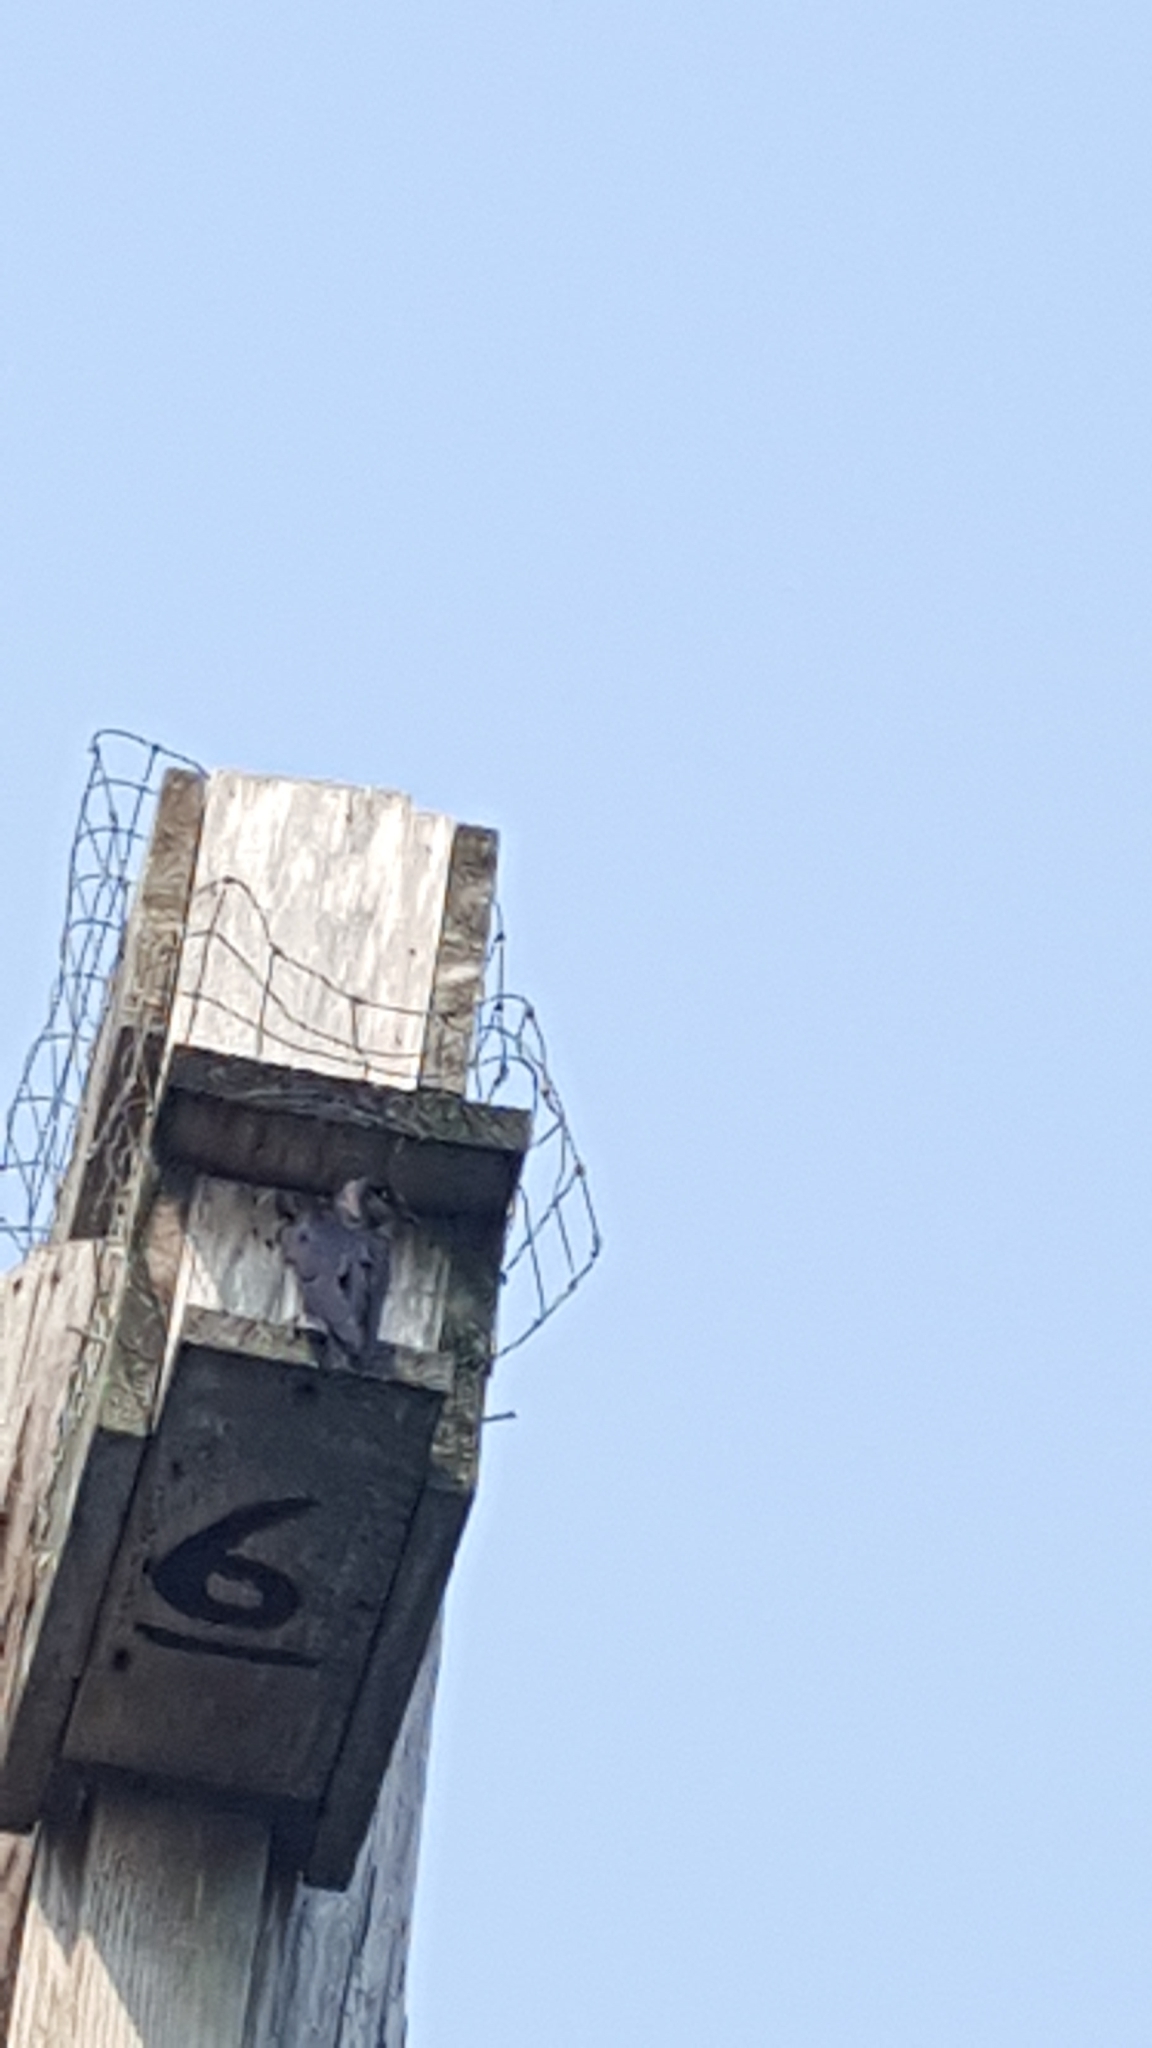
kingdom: Animalia
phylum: Chordata
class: Aves
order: Passeriformes
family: Hirundinidae
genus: Progne
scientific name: Progne subis
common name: Purple martin
